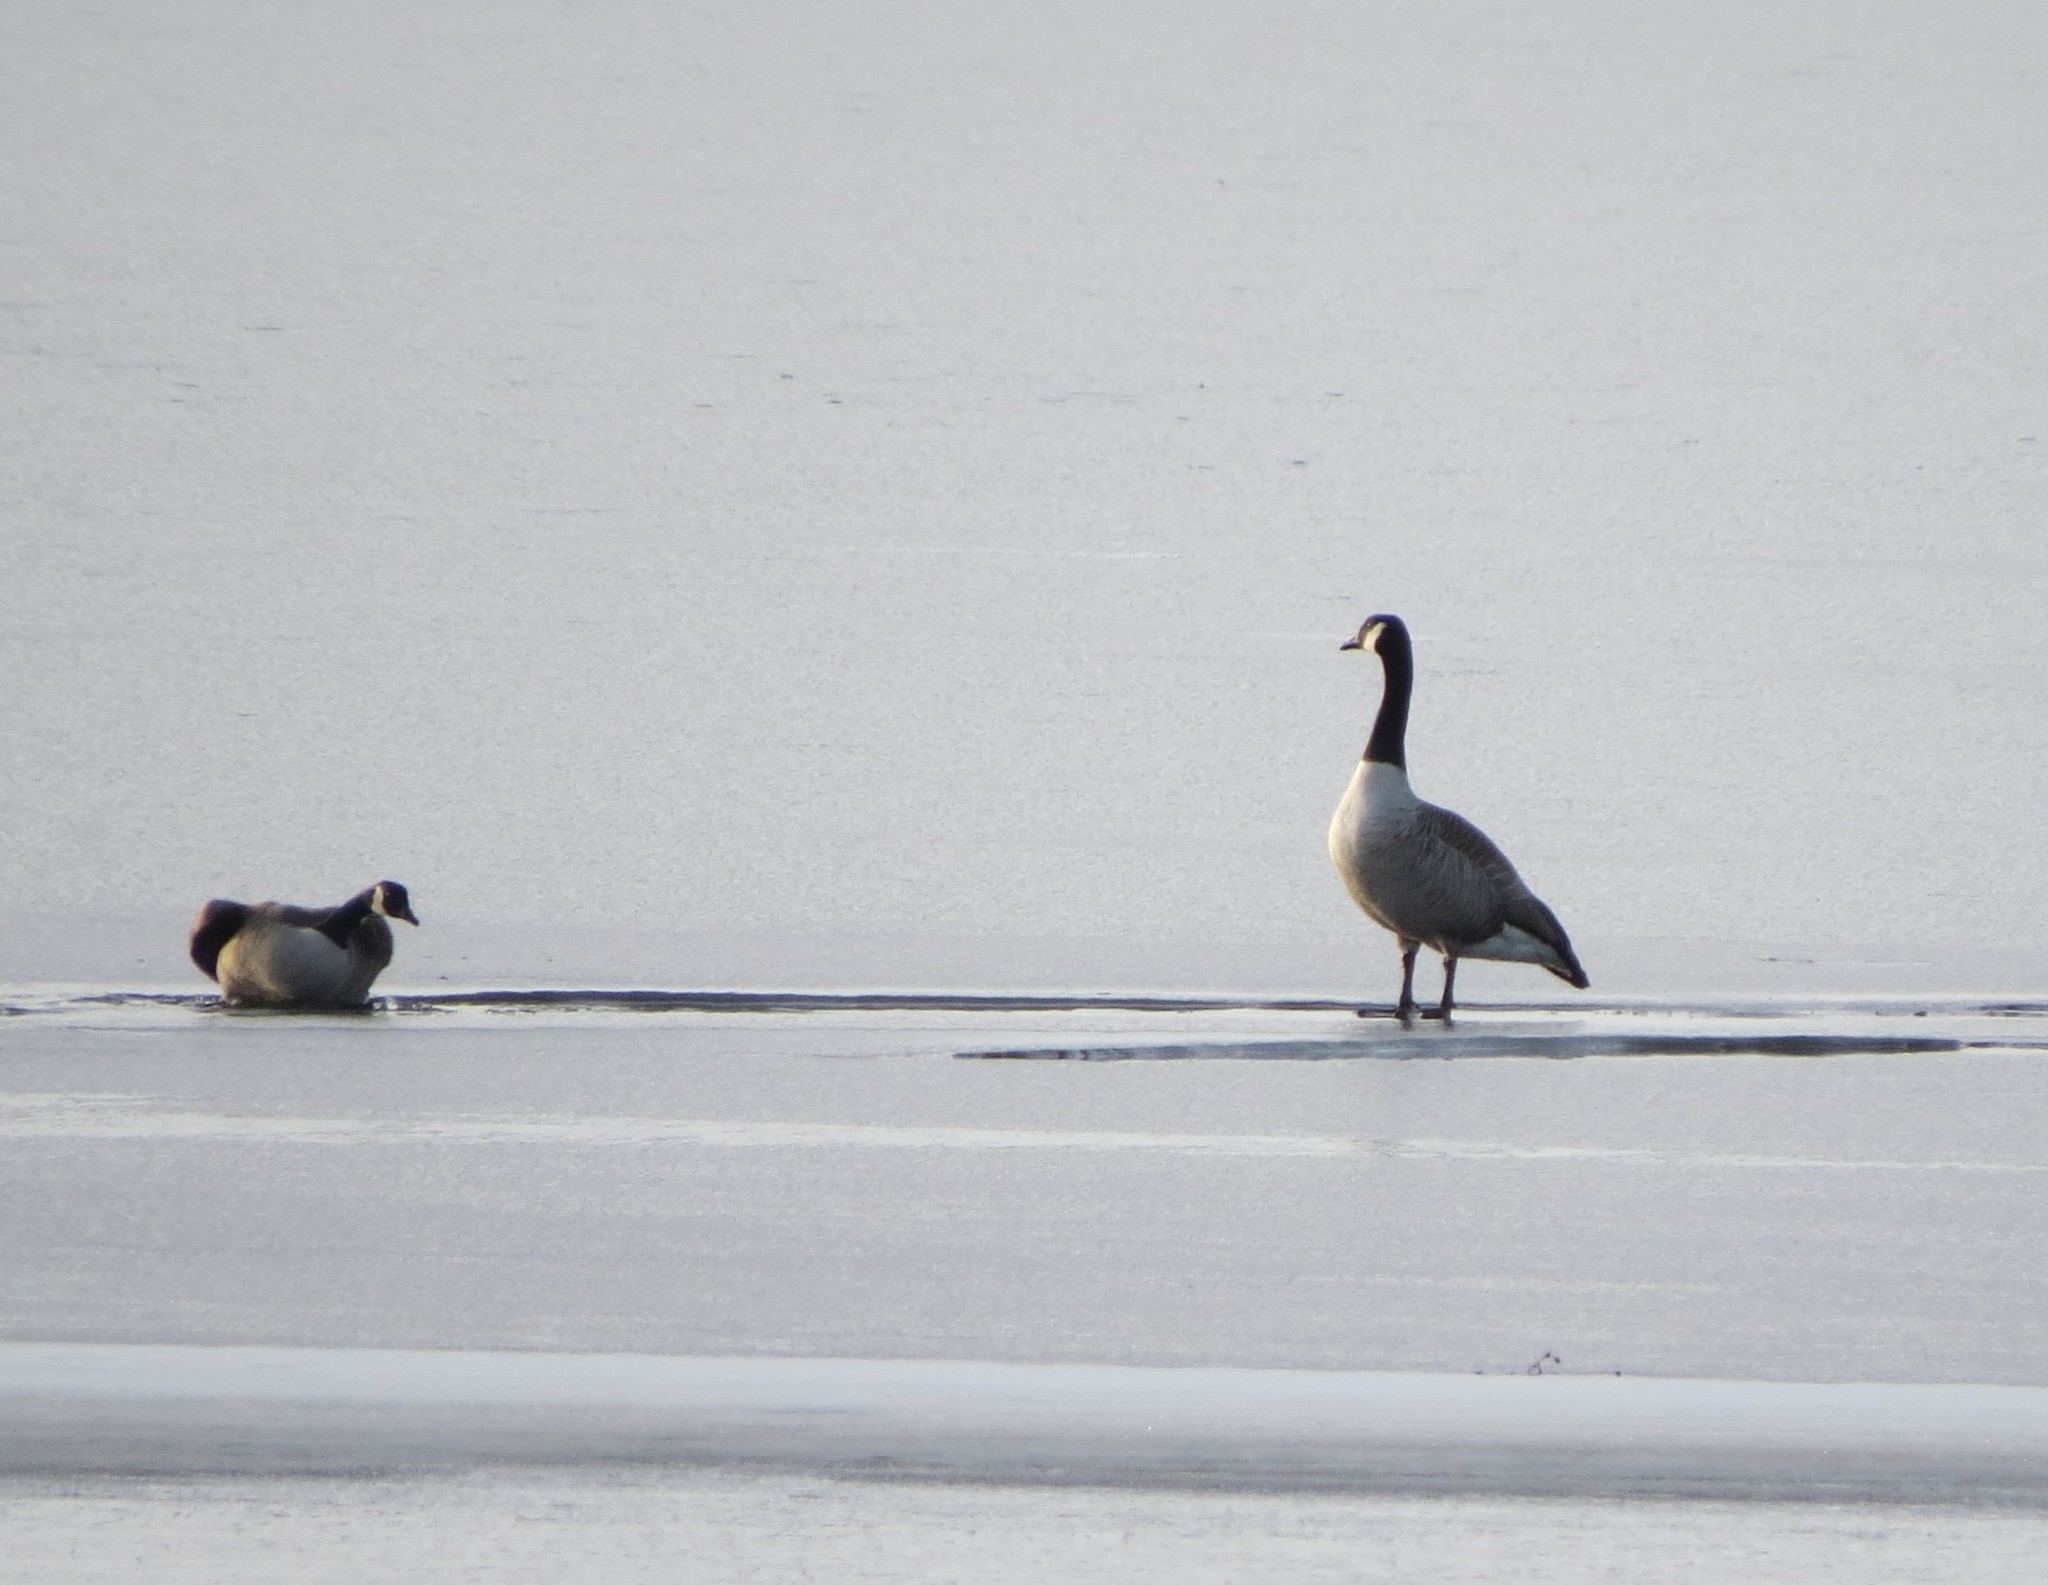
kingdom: Animalia
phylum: Chordata
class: Aves
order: Anseriformes
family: Anatidae
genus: Branta
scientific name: Branta canadensis
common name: Canada goose
